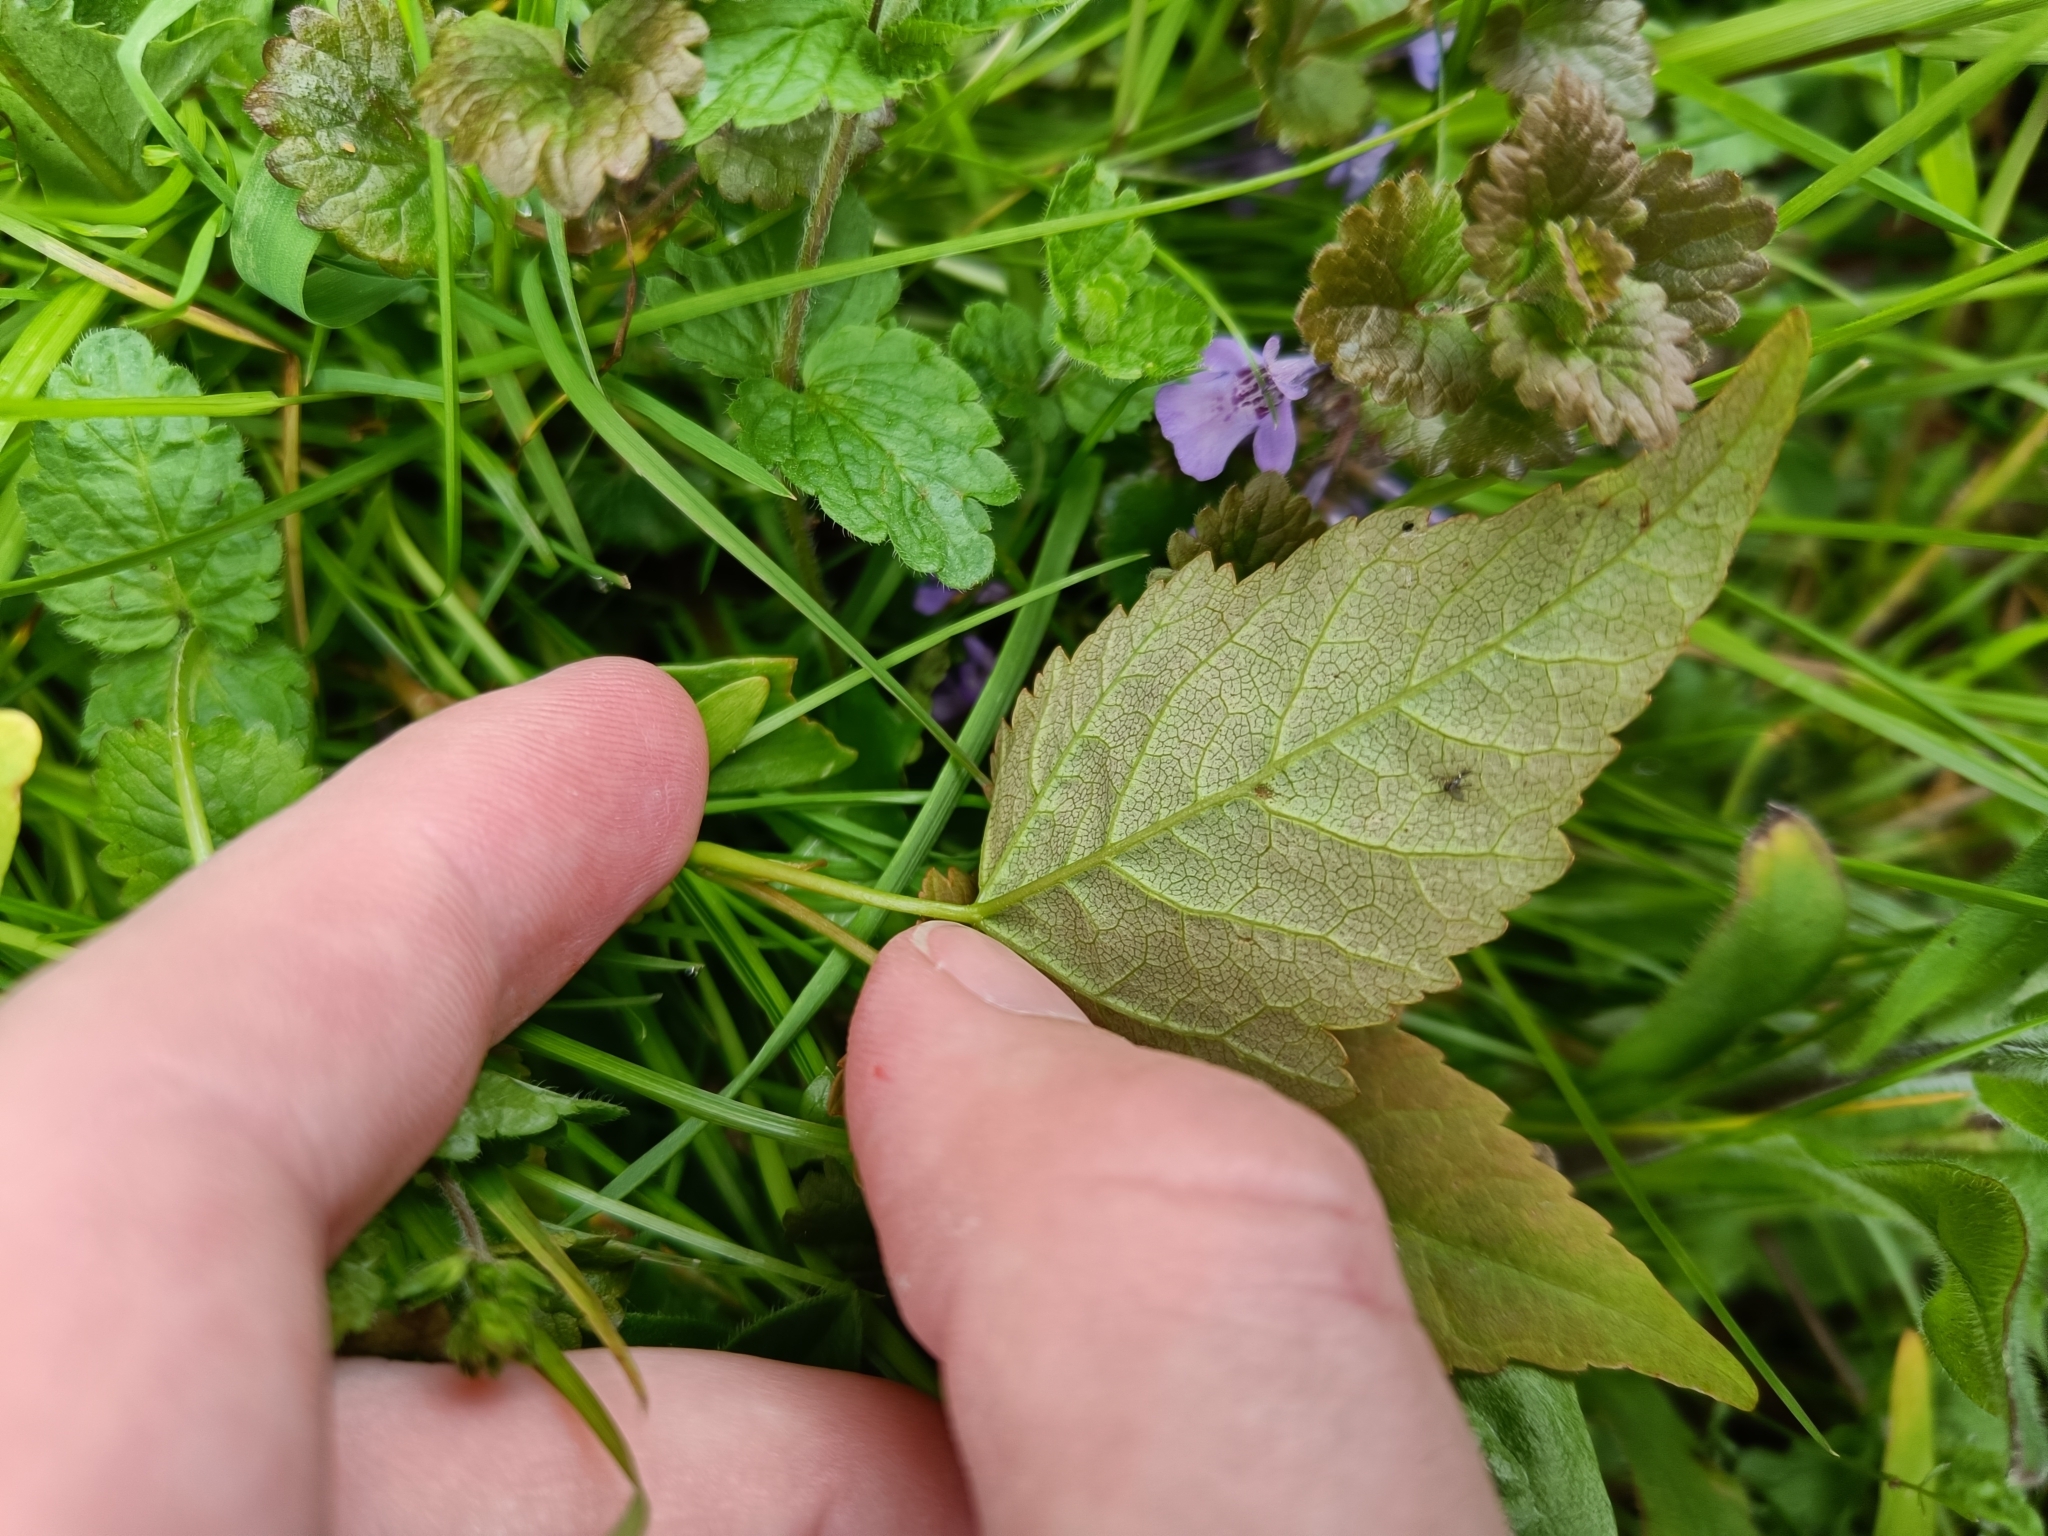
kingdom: Plantae
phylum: Tracheophyta
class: Magnoliopsida
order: Apiales
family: Apiaceae
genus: Aegopodium
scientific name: Aegopodium podagraria
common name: Ground-elder
